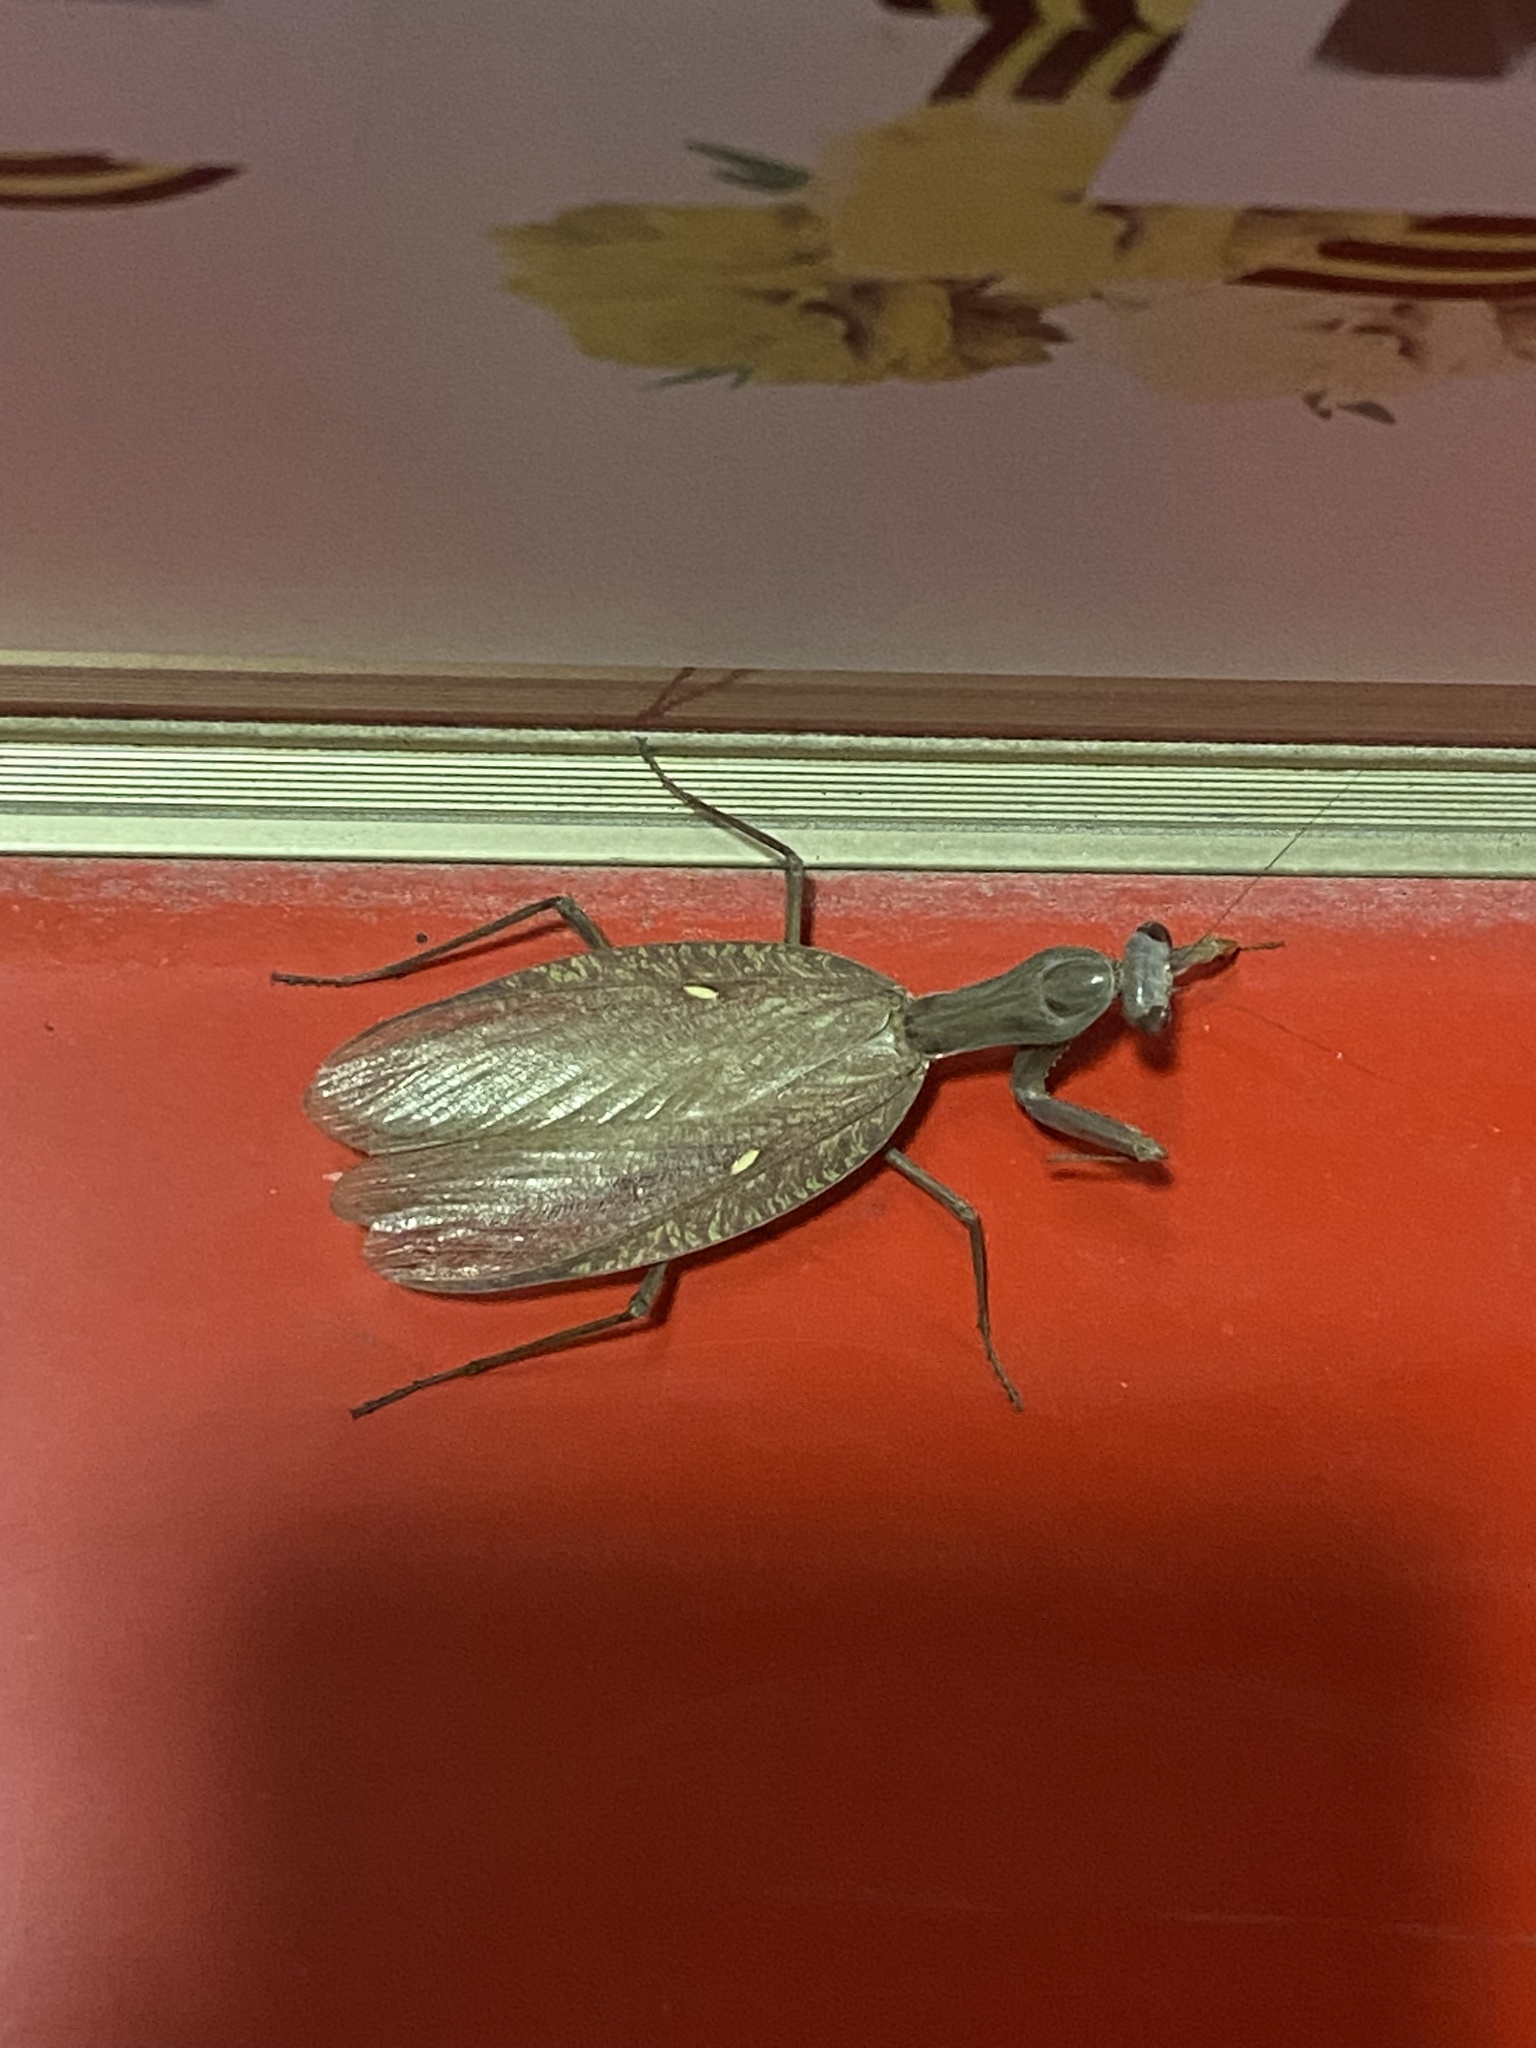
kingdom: Animalia
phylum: Arthropoda
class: Insecta
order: Mantodea
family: Mantidae
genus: Hierodula
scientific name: Hierodula transcaucasica
